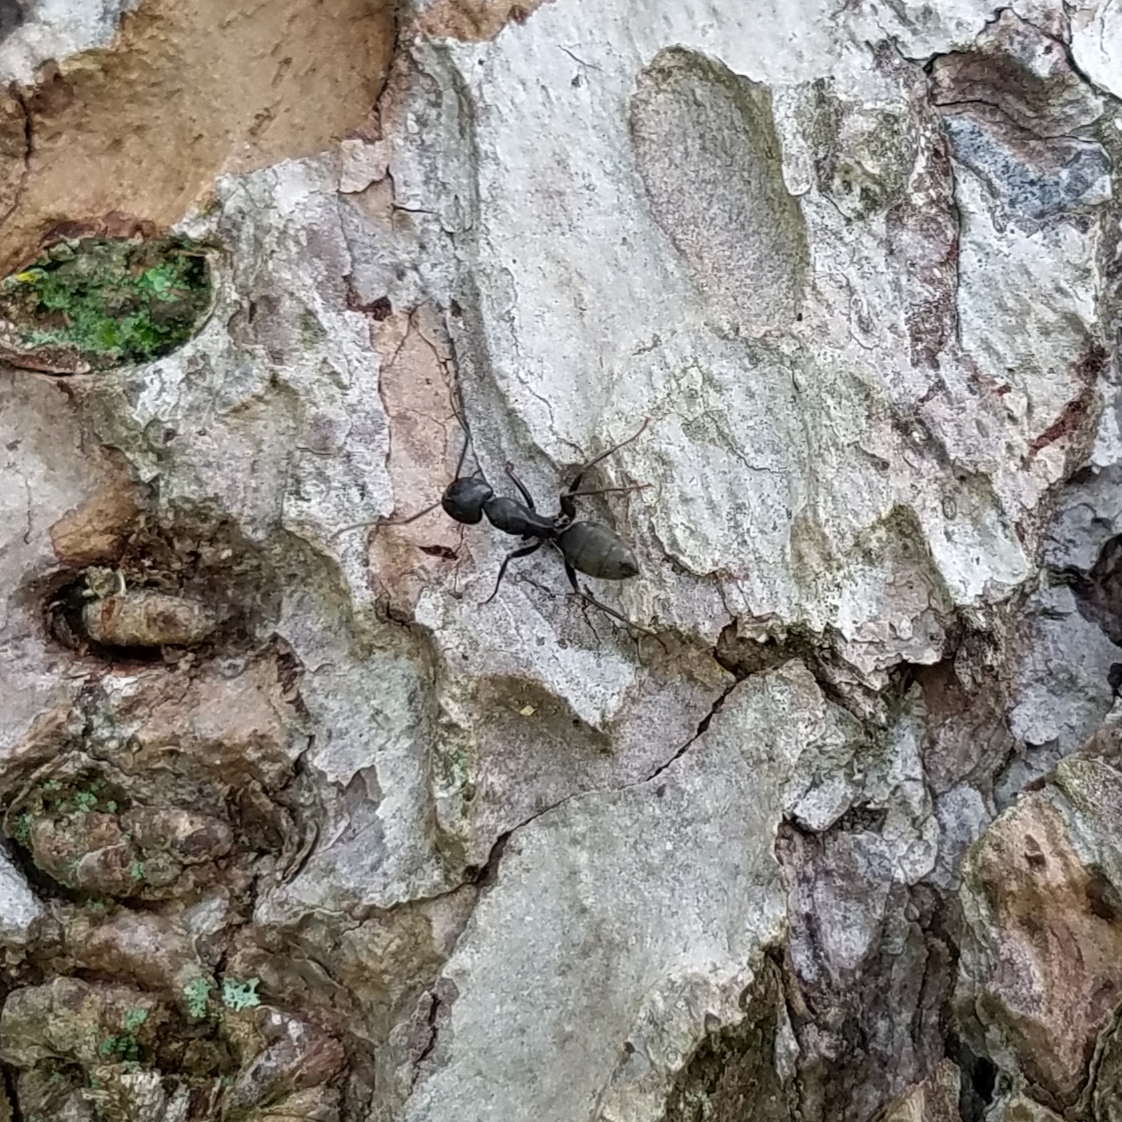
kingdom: Animalia
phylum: Arthropoda
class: Insecta
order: Hymenoptera
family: Formicidae
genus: Camponotus
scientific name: Camponotus pennsylvanicus
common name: Black carpenter ant
